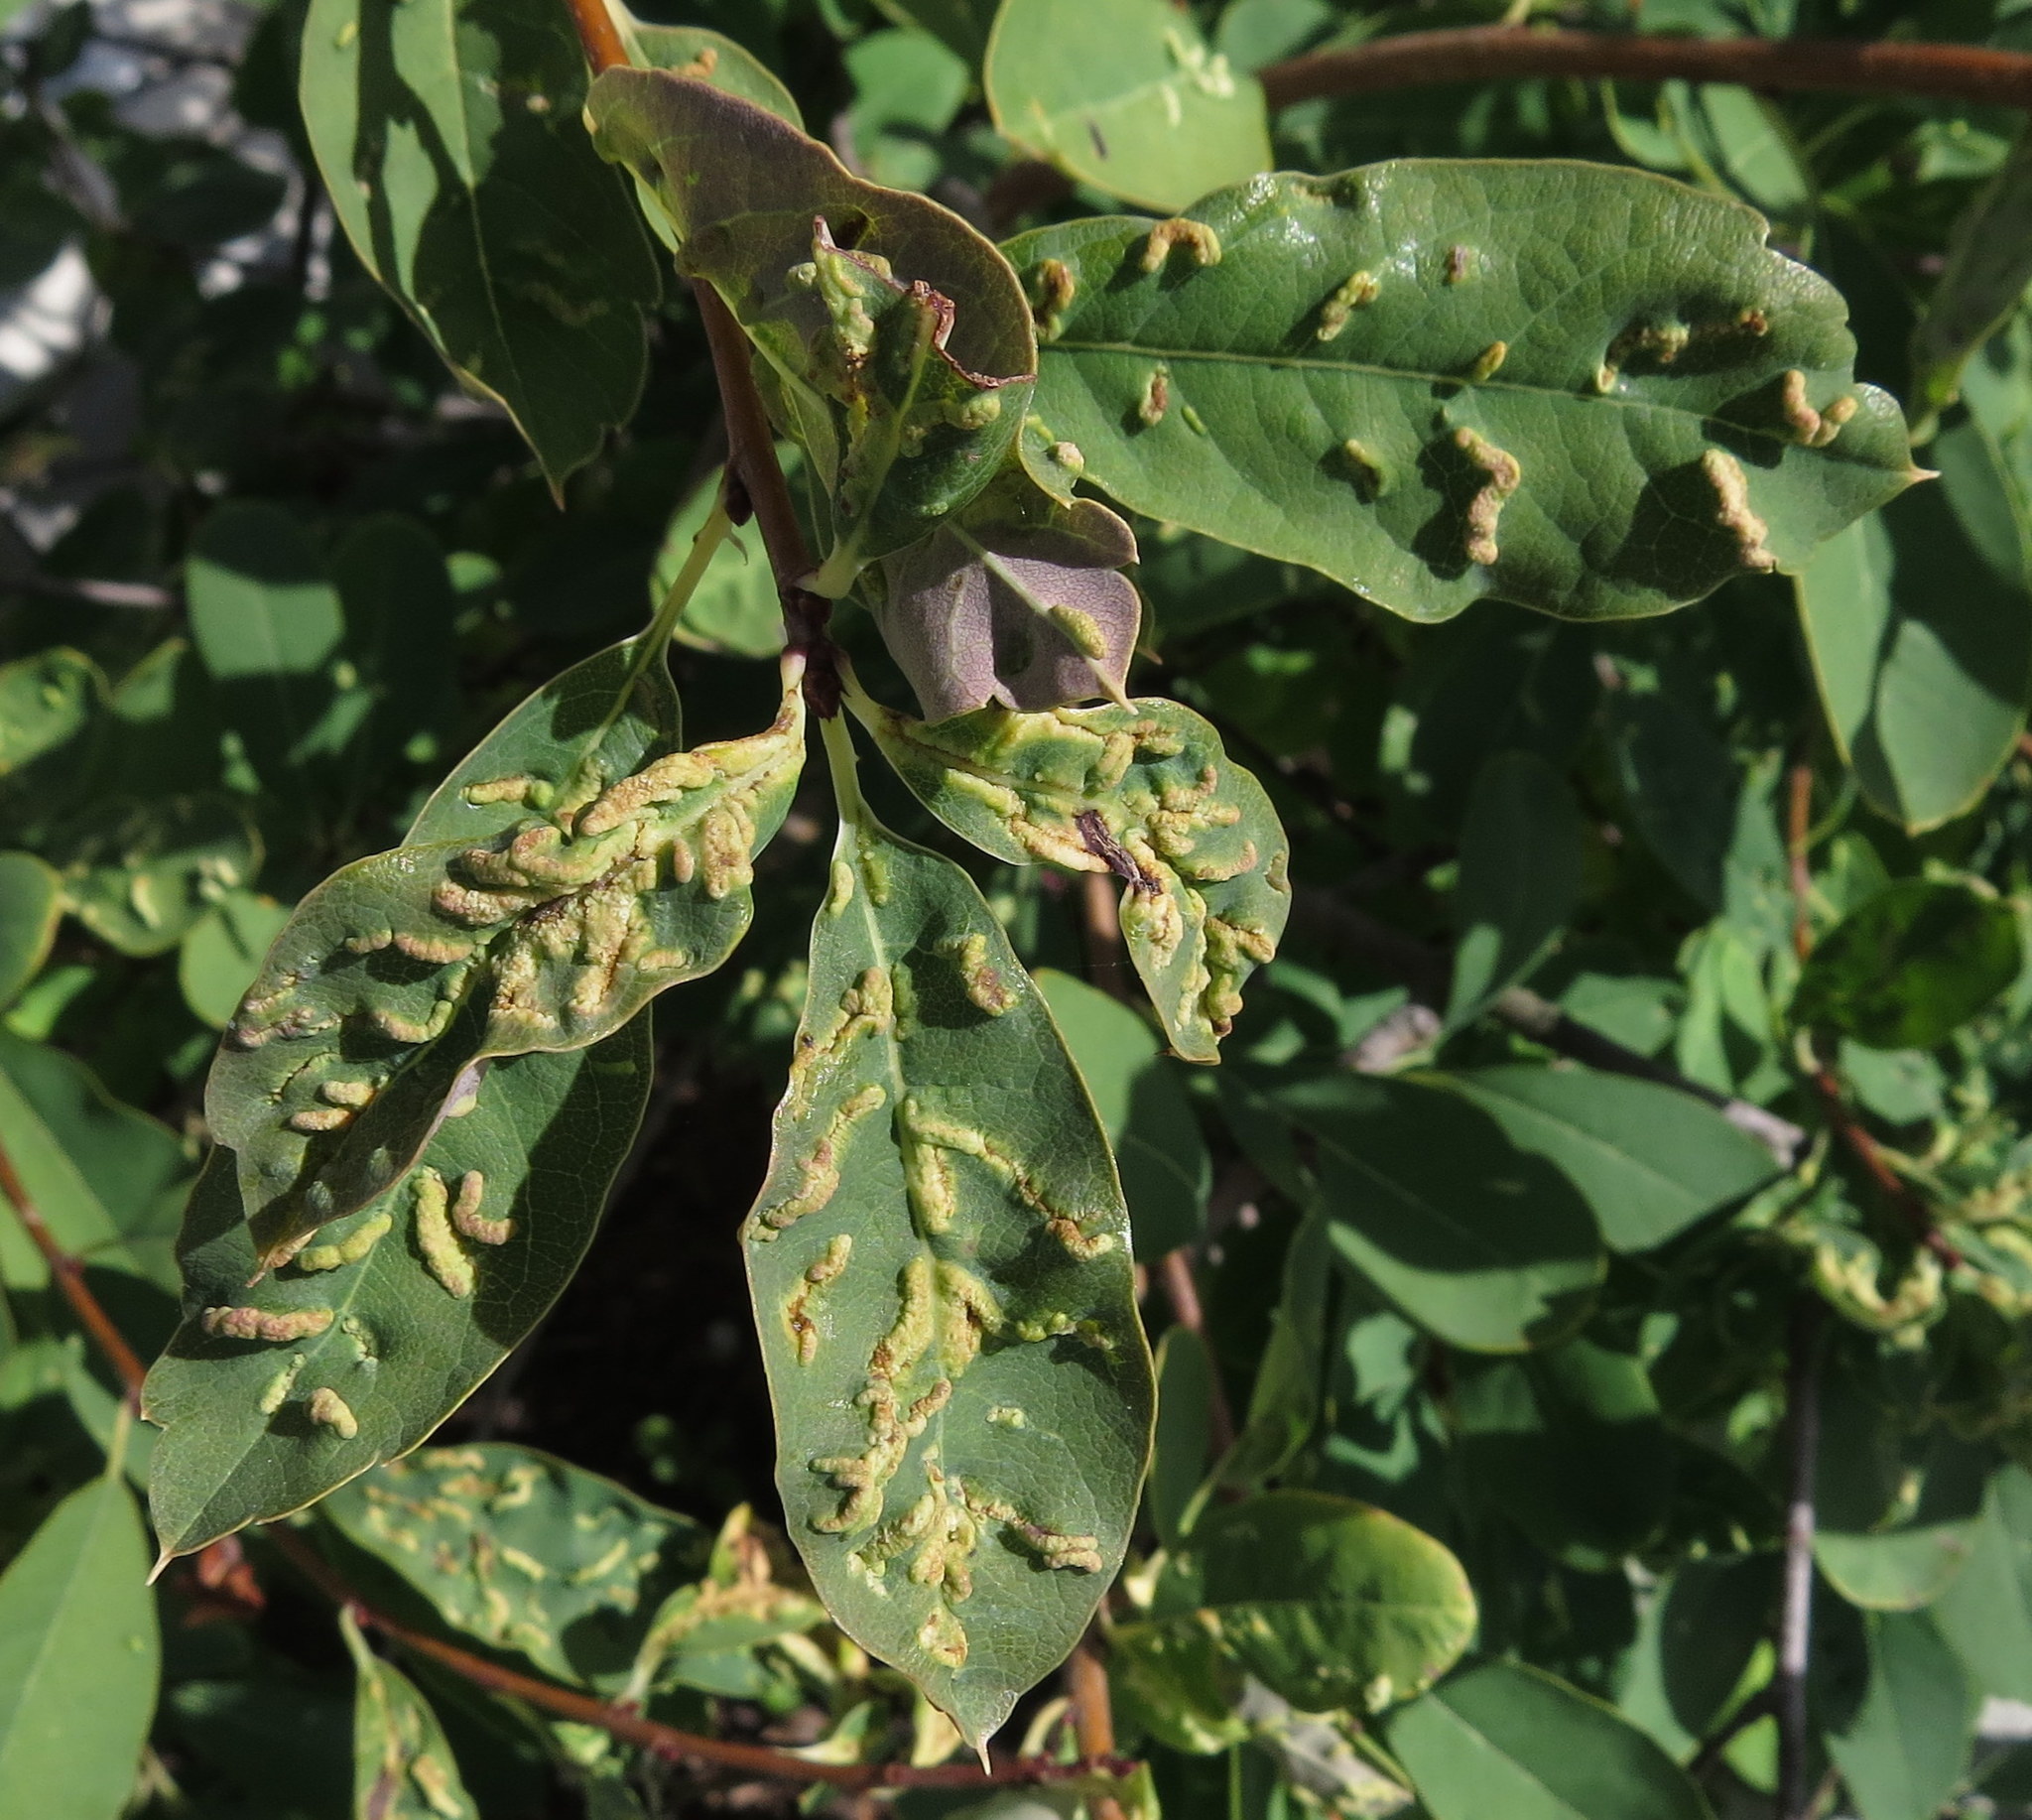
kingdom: Animalia
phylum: Arthropoda
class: Arachnida
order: Trombidiformes
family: Eriophyidae
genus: Phyllocoptes
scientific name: Phyllocoptes
